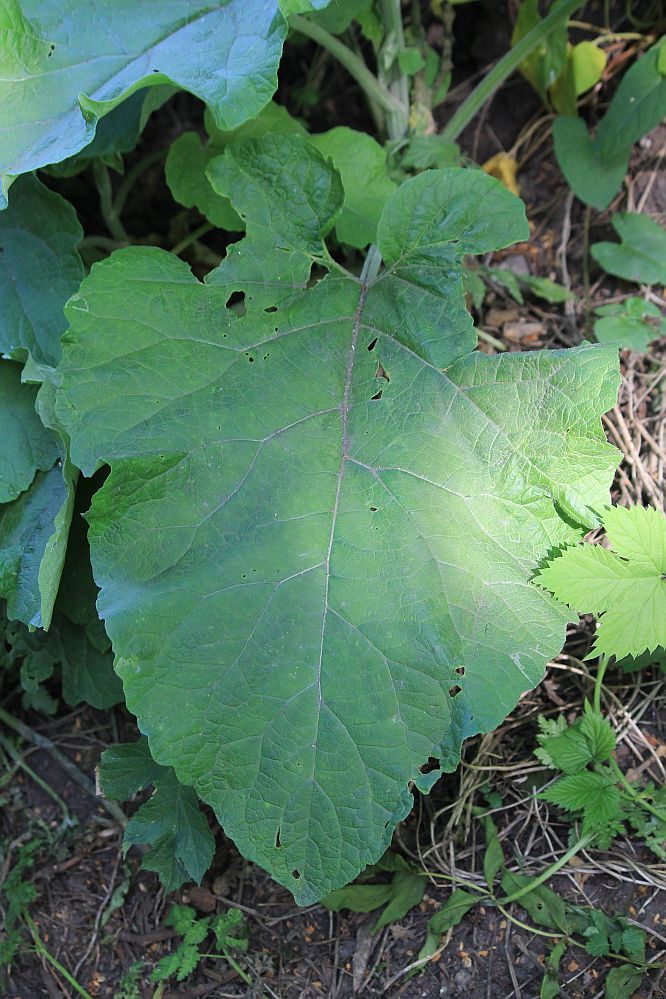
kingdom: Plantae
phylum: Tracheophyta
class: Magnoliopsida
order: Asterales
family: Asteraceae
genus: Arctium
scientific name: Arctium minus
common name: Lesser burdock
